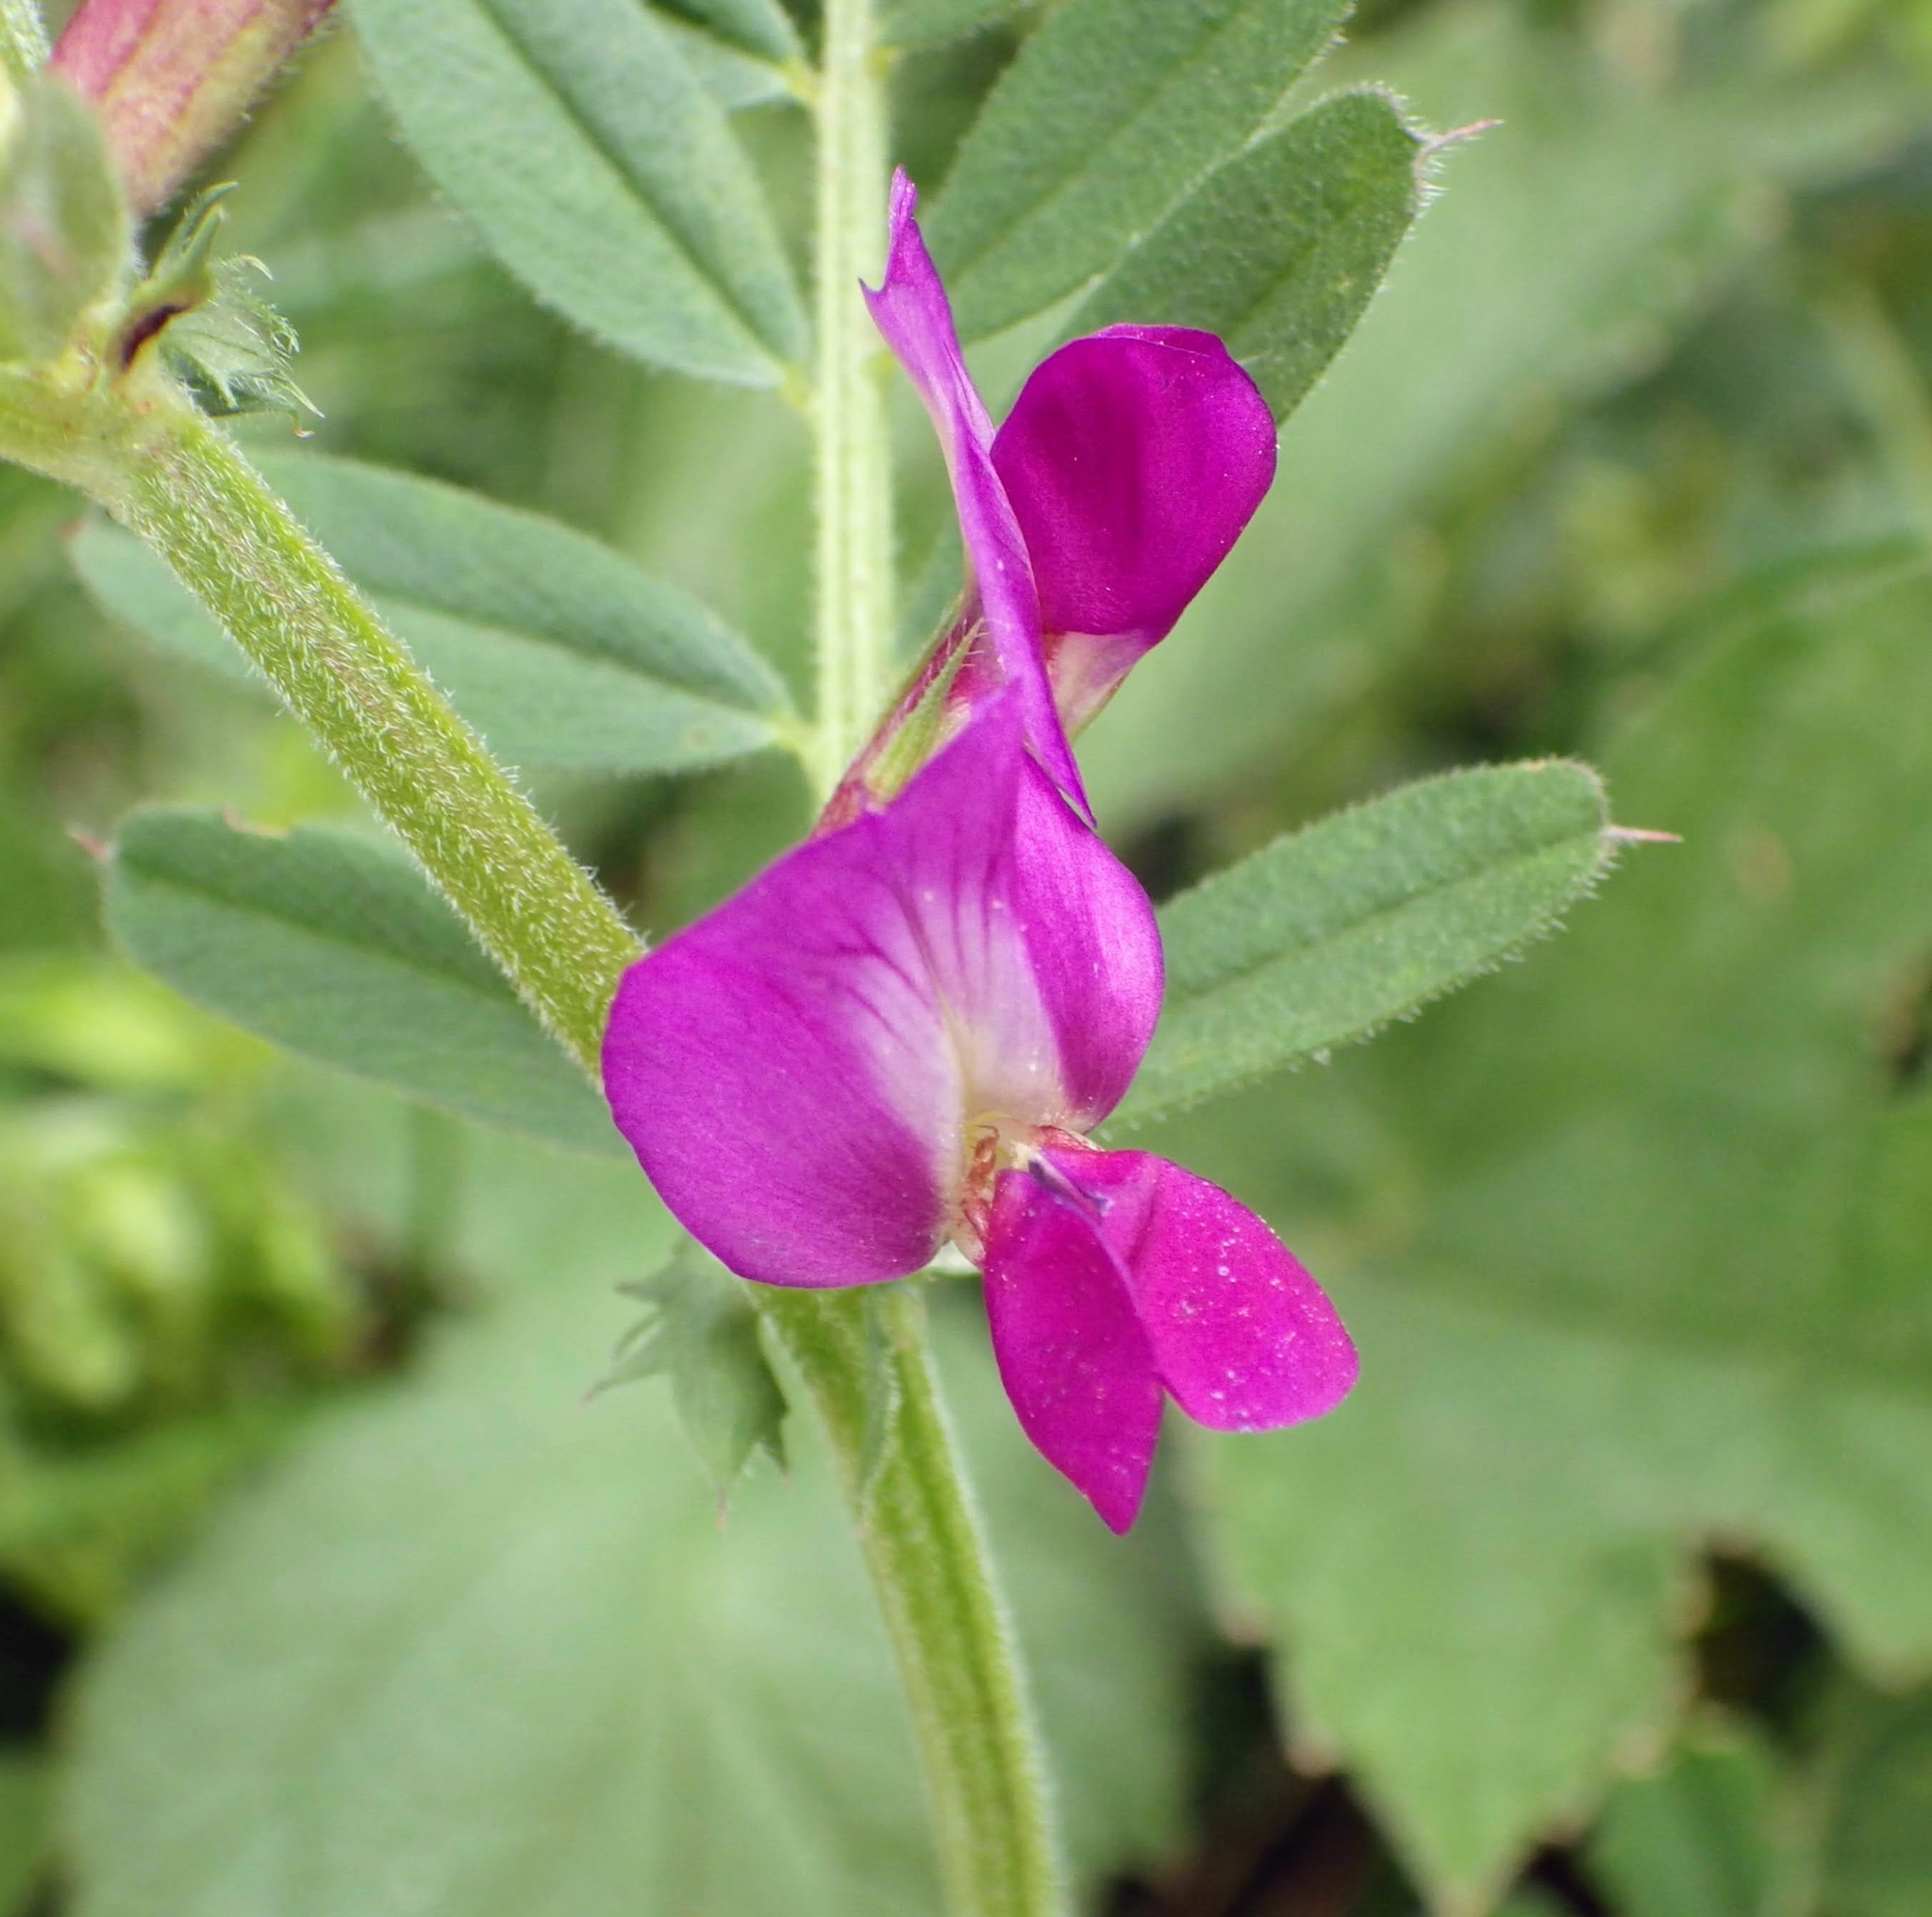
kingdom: Plantae
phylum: Tracheophyta
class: Magnoliopsida
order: Fabales
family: Fabaceae
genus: Vicia
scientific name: Vicia sativa
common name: Garden vetch
